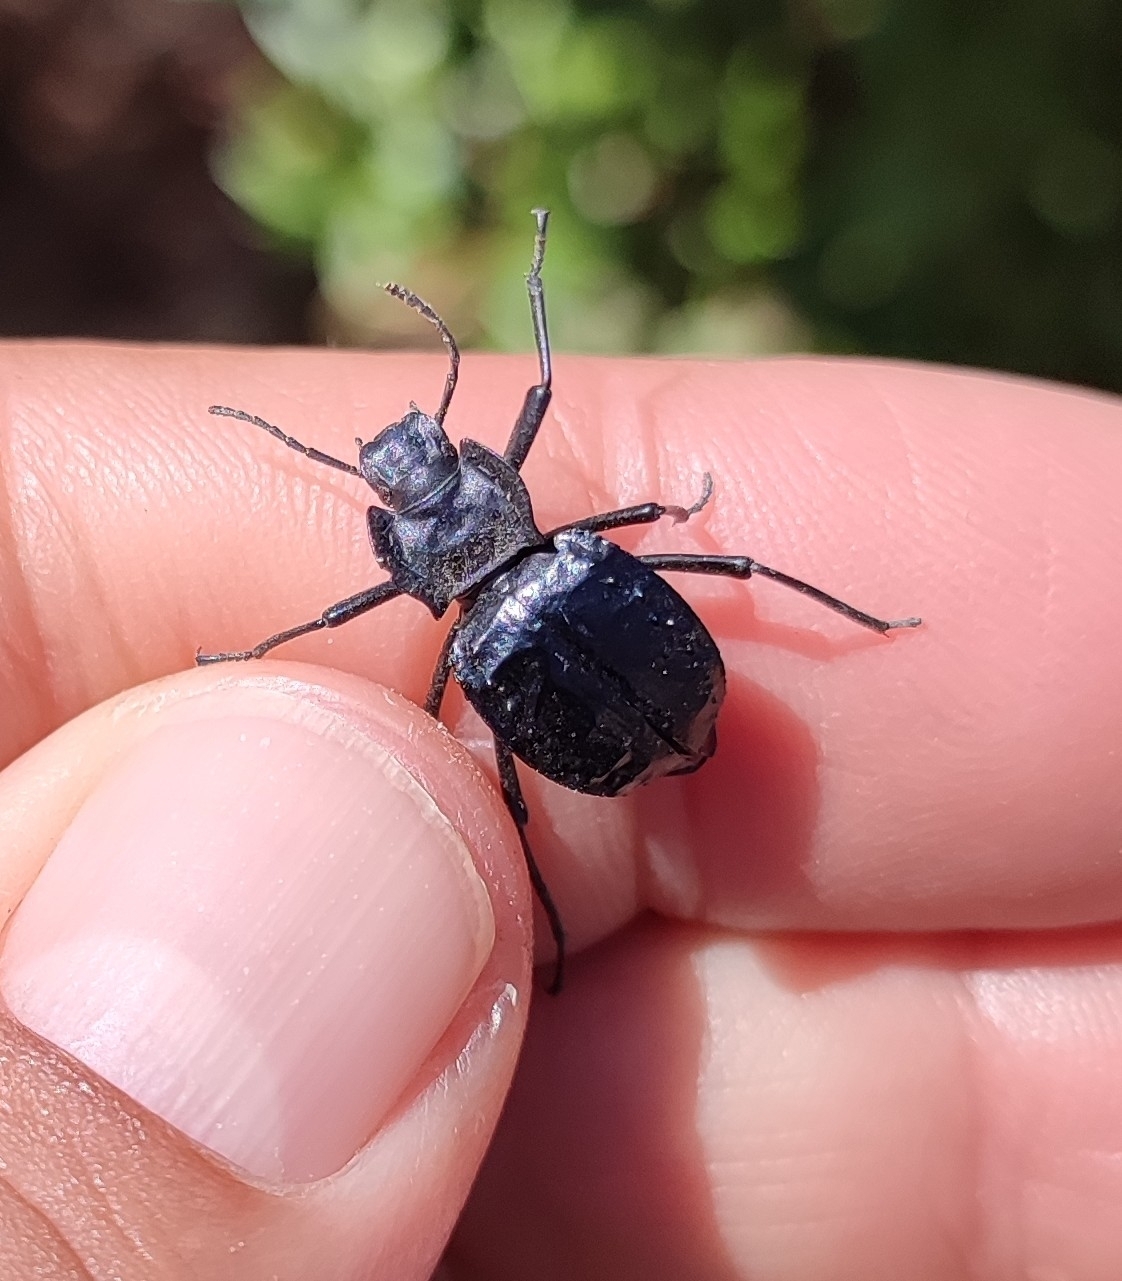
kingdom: Animalia
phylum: Arthropoda
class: Insecta
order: Coleoptera
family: Tenebrionidae
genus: Akis
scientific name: Akis bacarozzo
